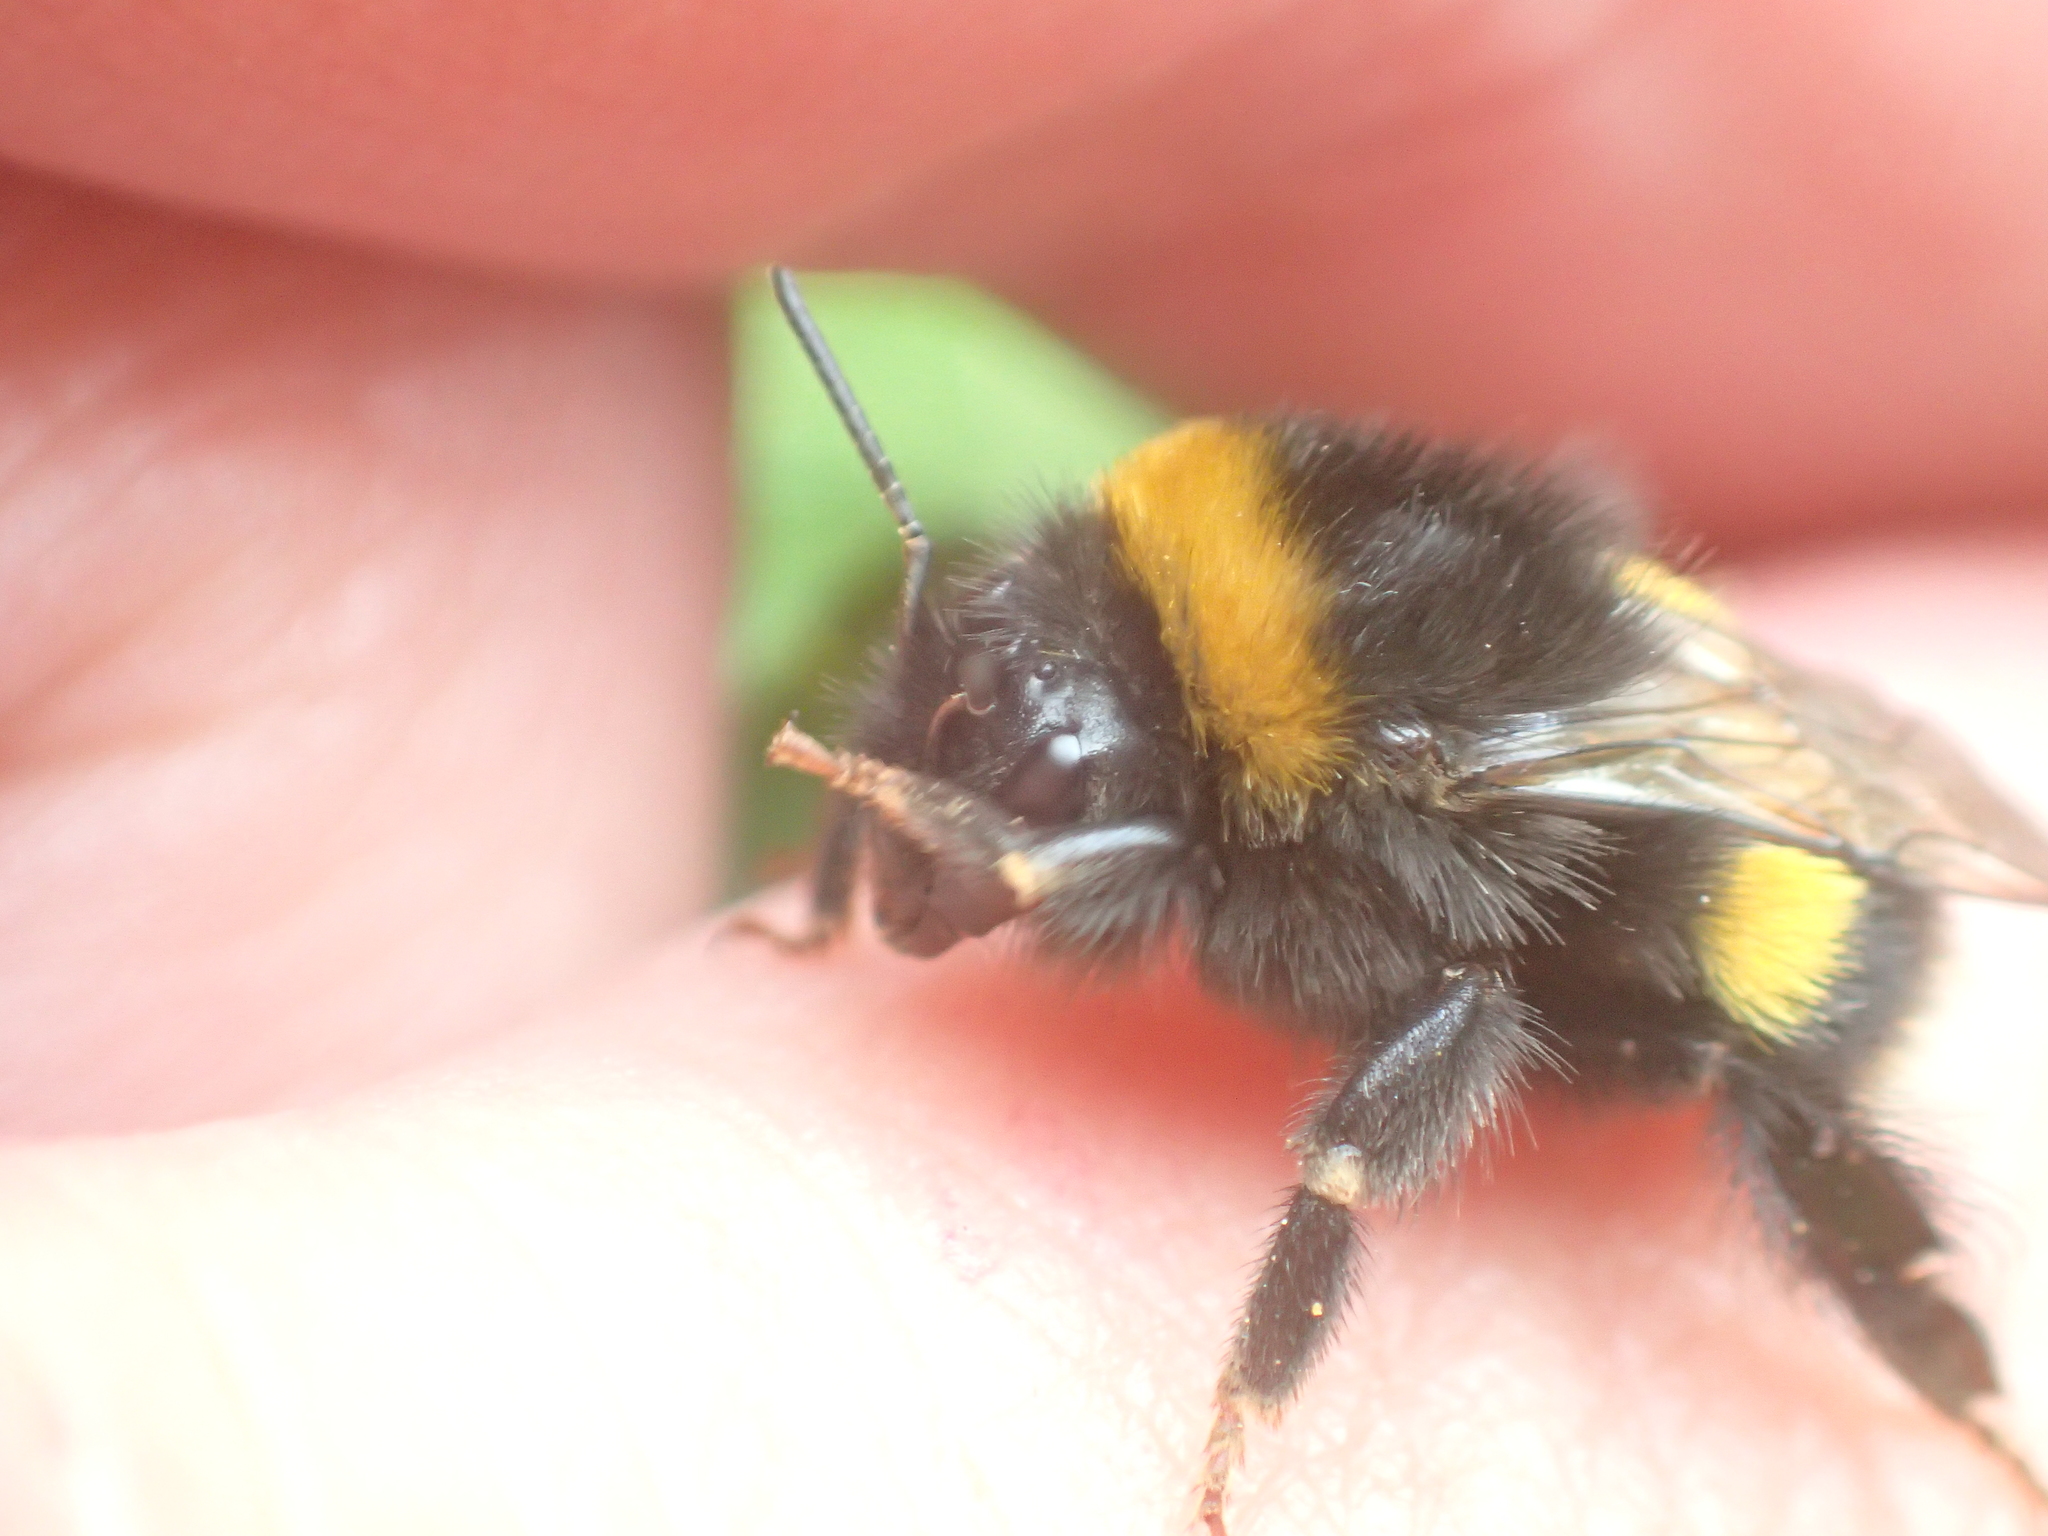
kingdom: Animalia
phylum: Arthropoda
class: Insecta
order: Hymenoptera
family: Apidae
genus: Bombus
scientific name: Bombus terrestris
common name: Buff-tailed bumblebee
